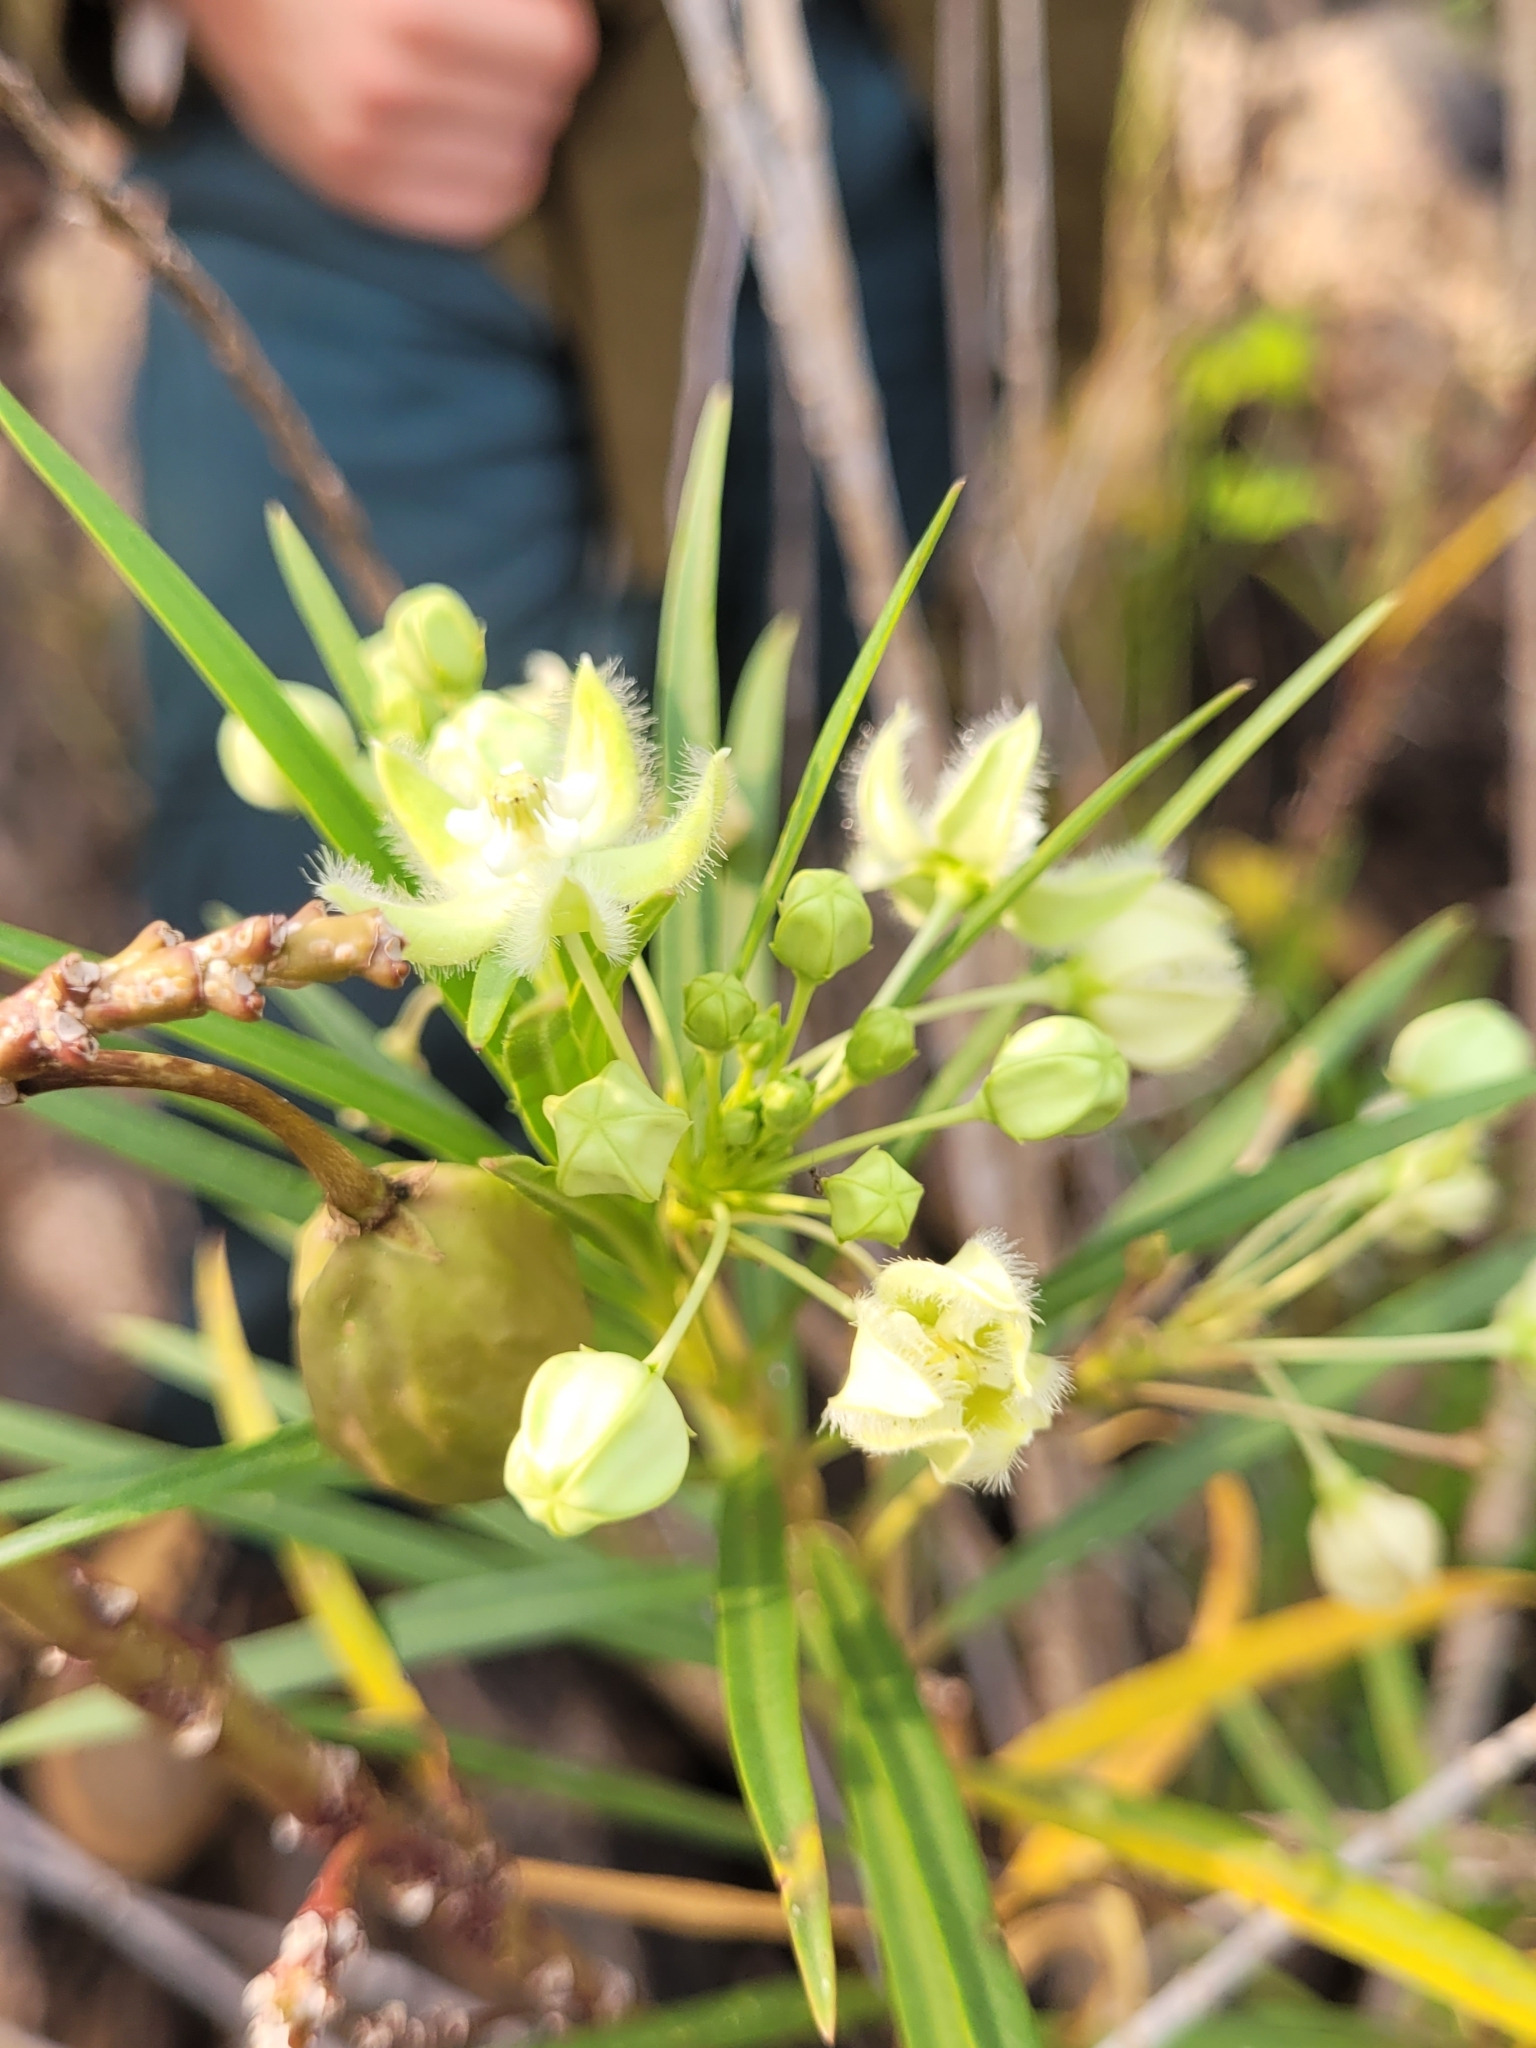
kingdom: Plantae
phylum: Tracheophyta
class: Magnoliopsida
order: Gentianales
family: Apocynaceae
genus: Kanahia
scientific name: Kanahia laniflora
